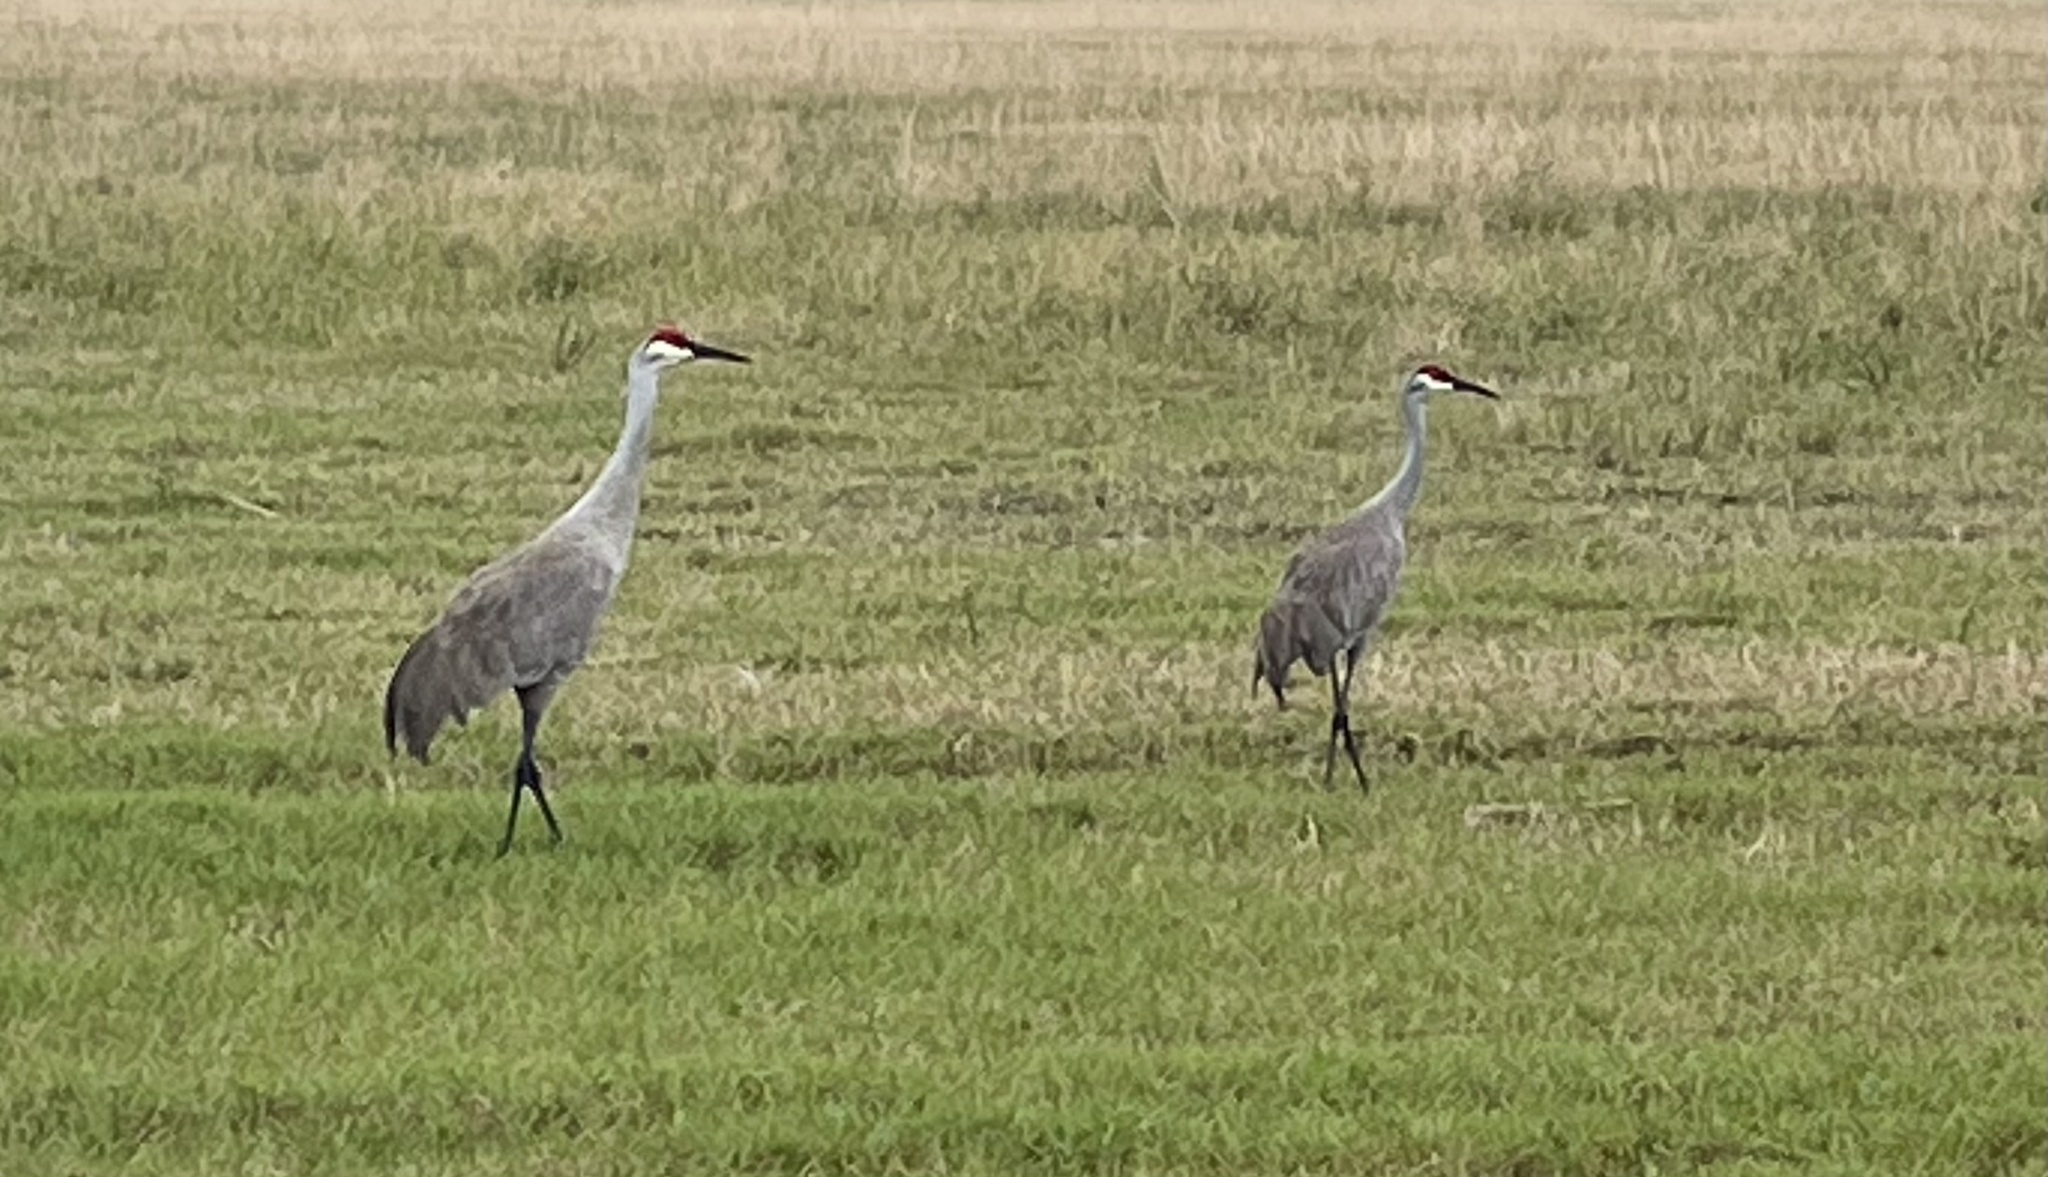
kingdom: Animalia
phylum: Chordata
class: Aves
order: Gruiformes
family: Gruidae
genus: Grus
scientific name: Grus canadensis
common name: Sandhill crane
